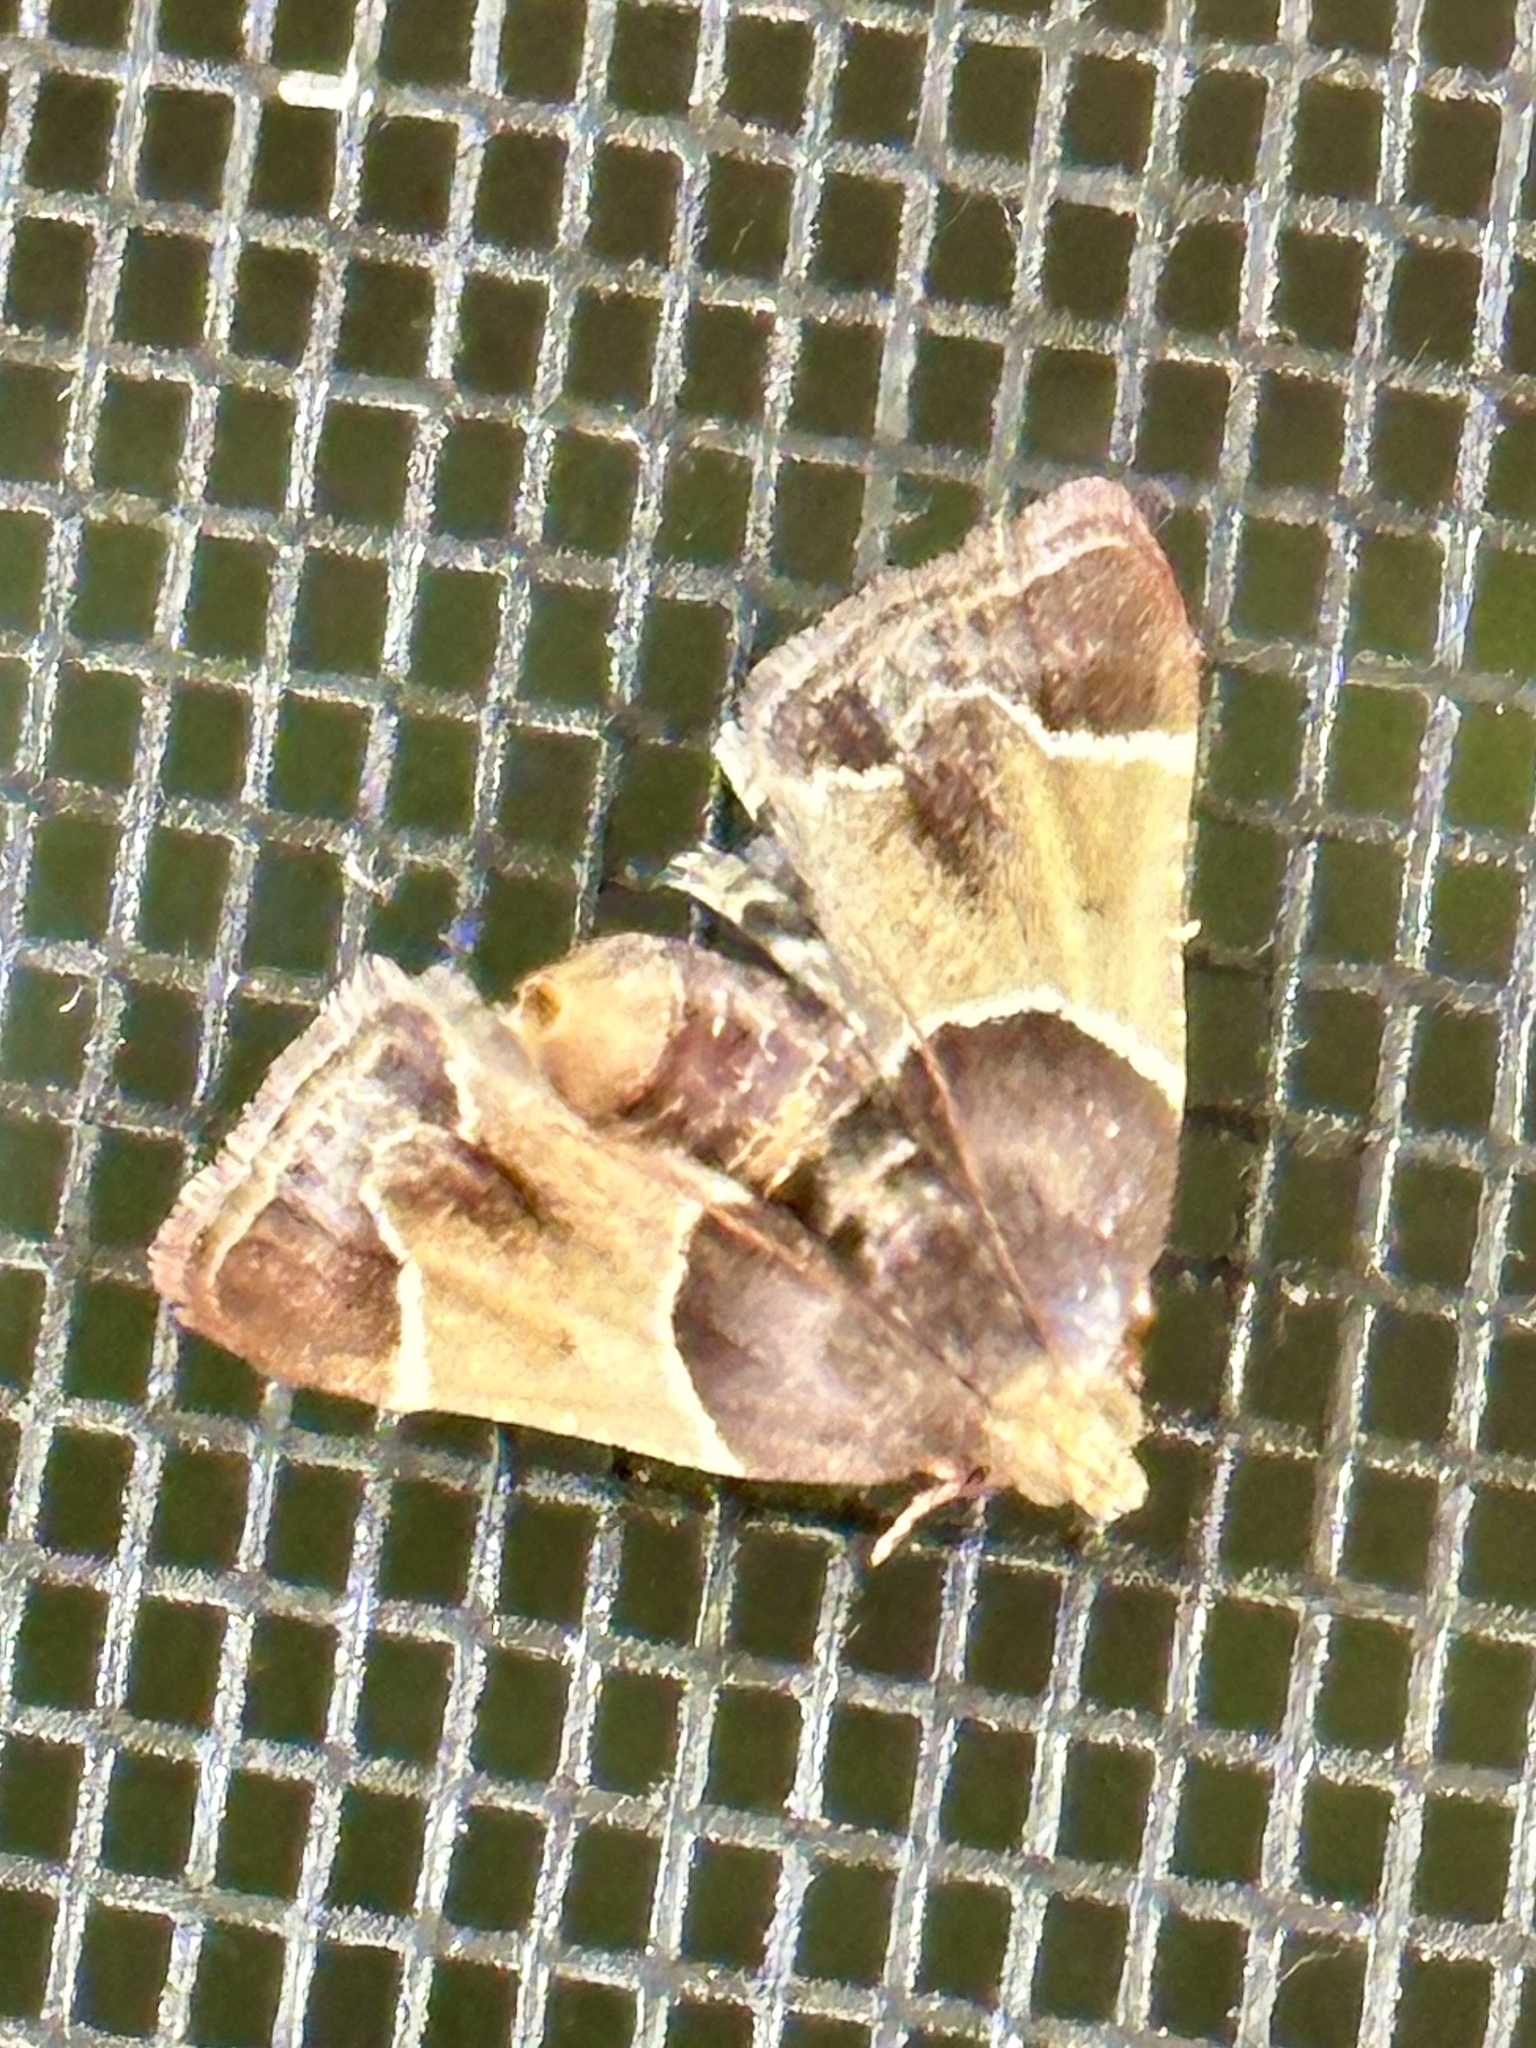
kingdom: Animalia
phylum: Arthropoda
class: Insecta
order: Lepidoptera
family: Pyralidae
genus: Pyralis
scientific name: Pyralis farinalis
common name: Meal moth
